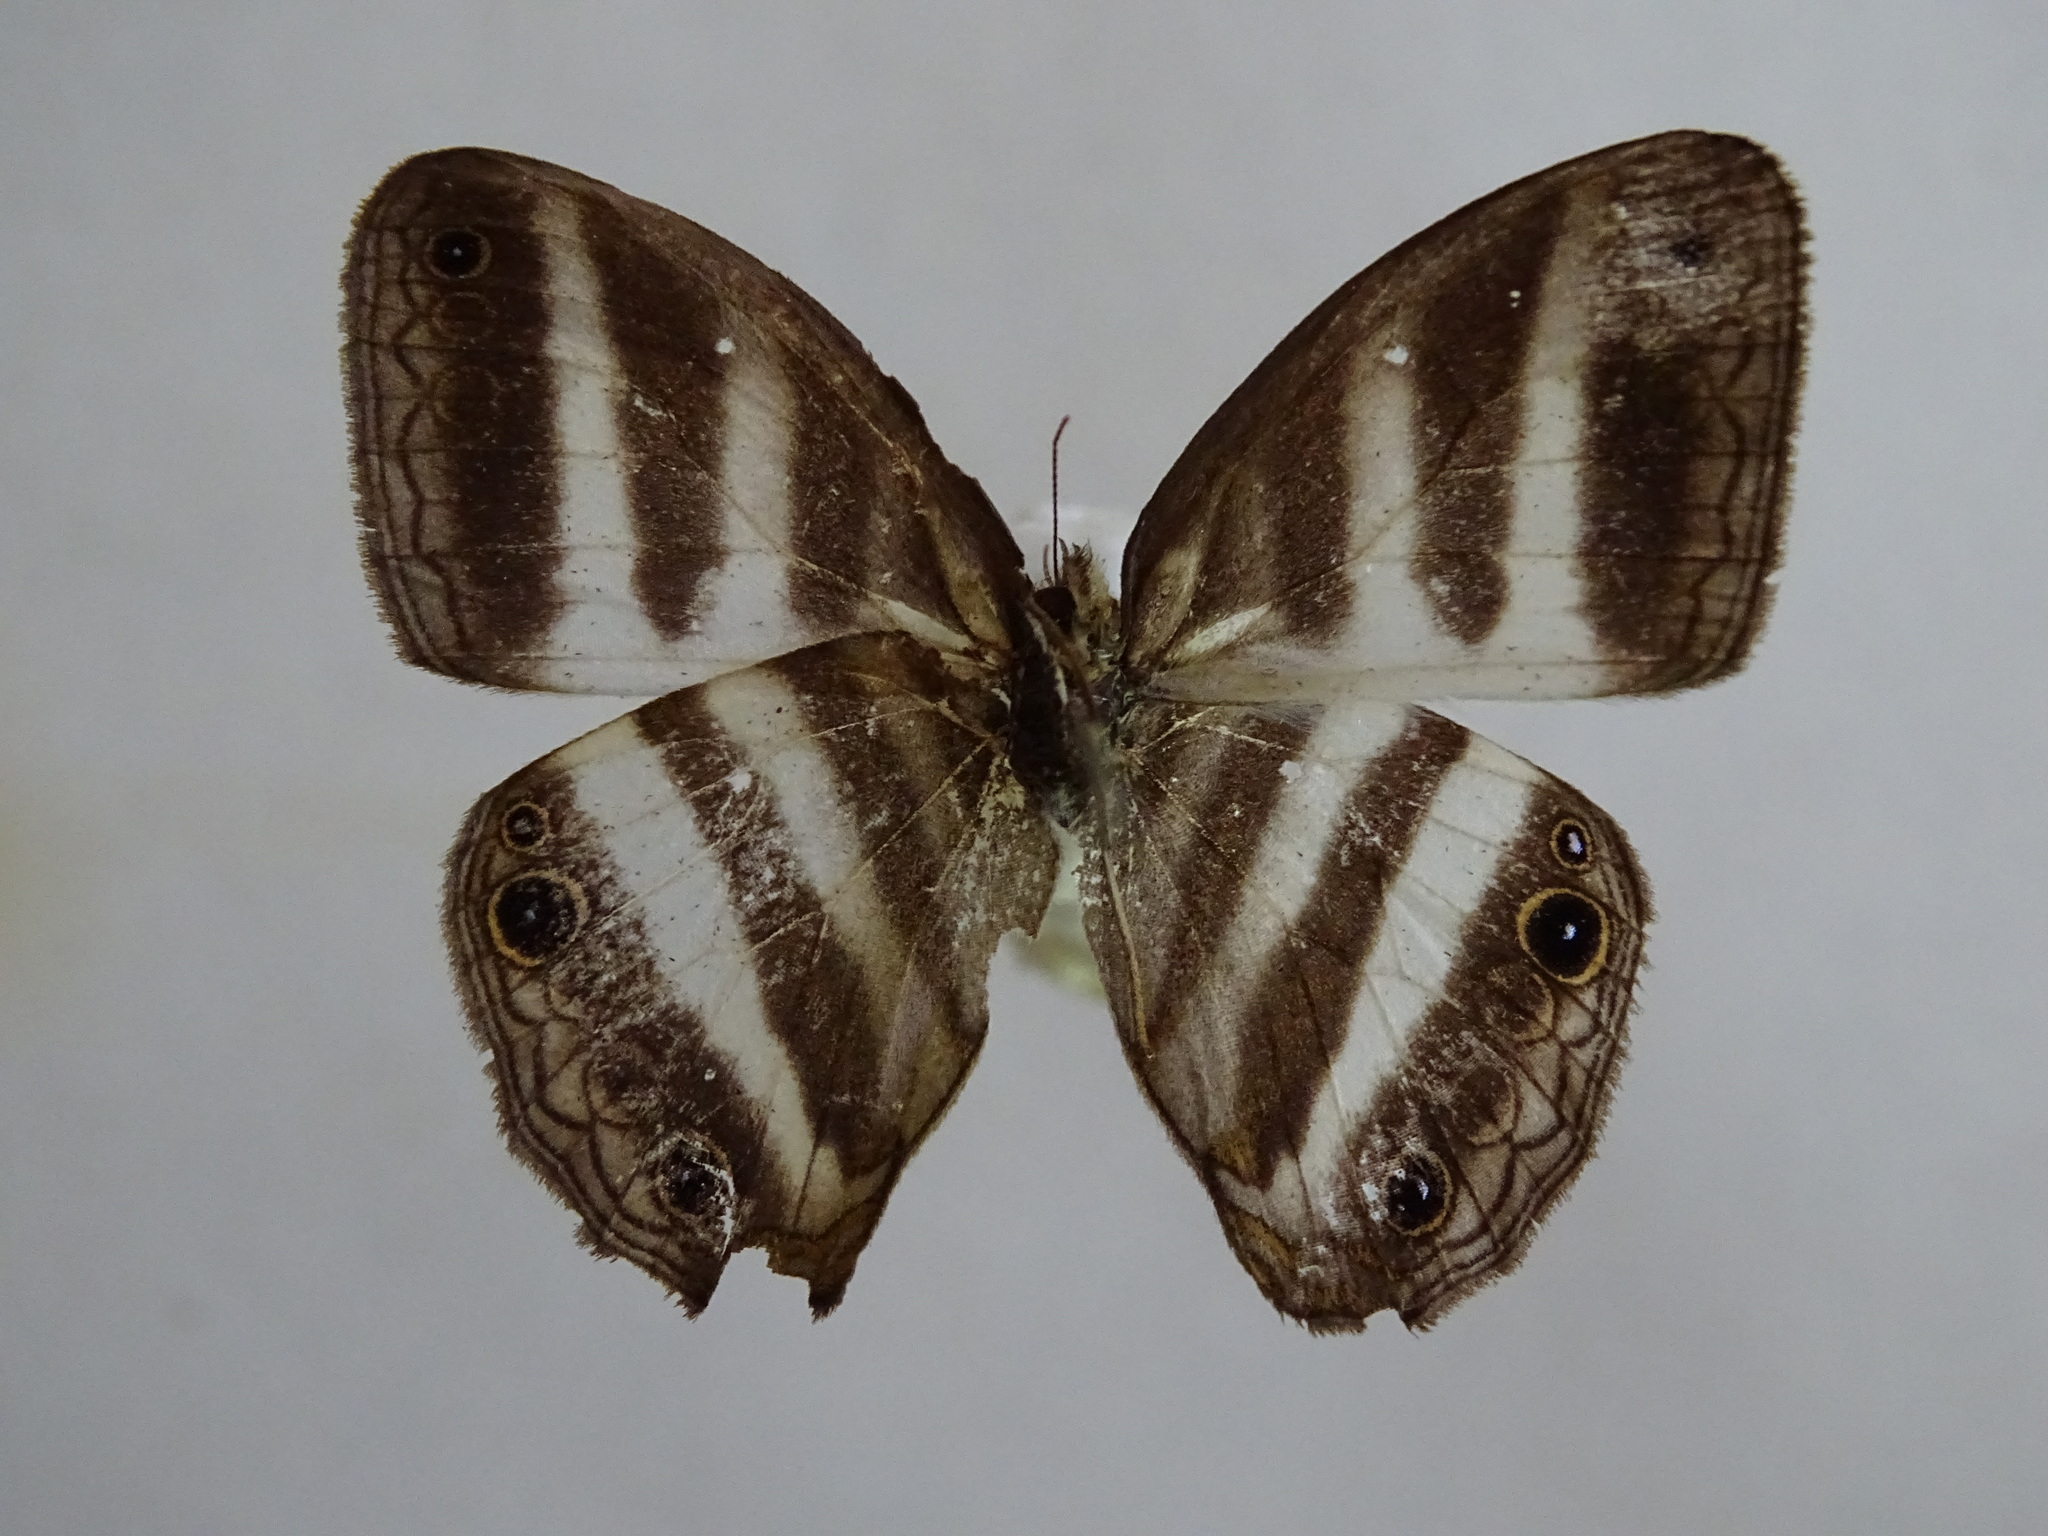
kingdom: Animalia
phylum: Arthropoda
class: Insecta
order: Lepidoptera
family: Nymphalidae
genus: Pareuptychia
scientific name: Pareuptychia hesione
